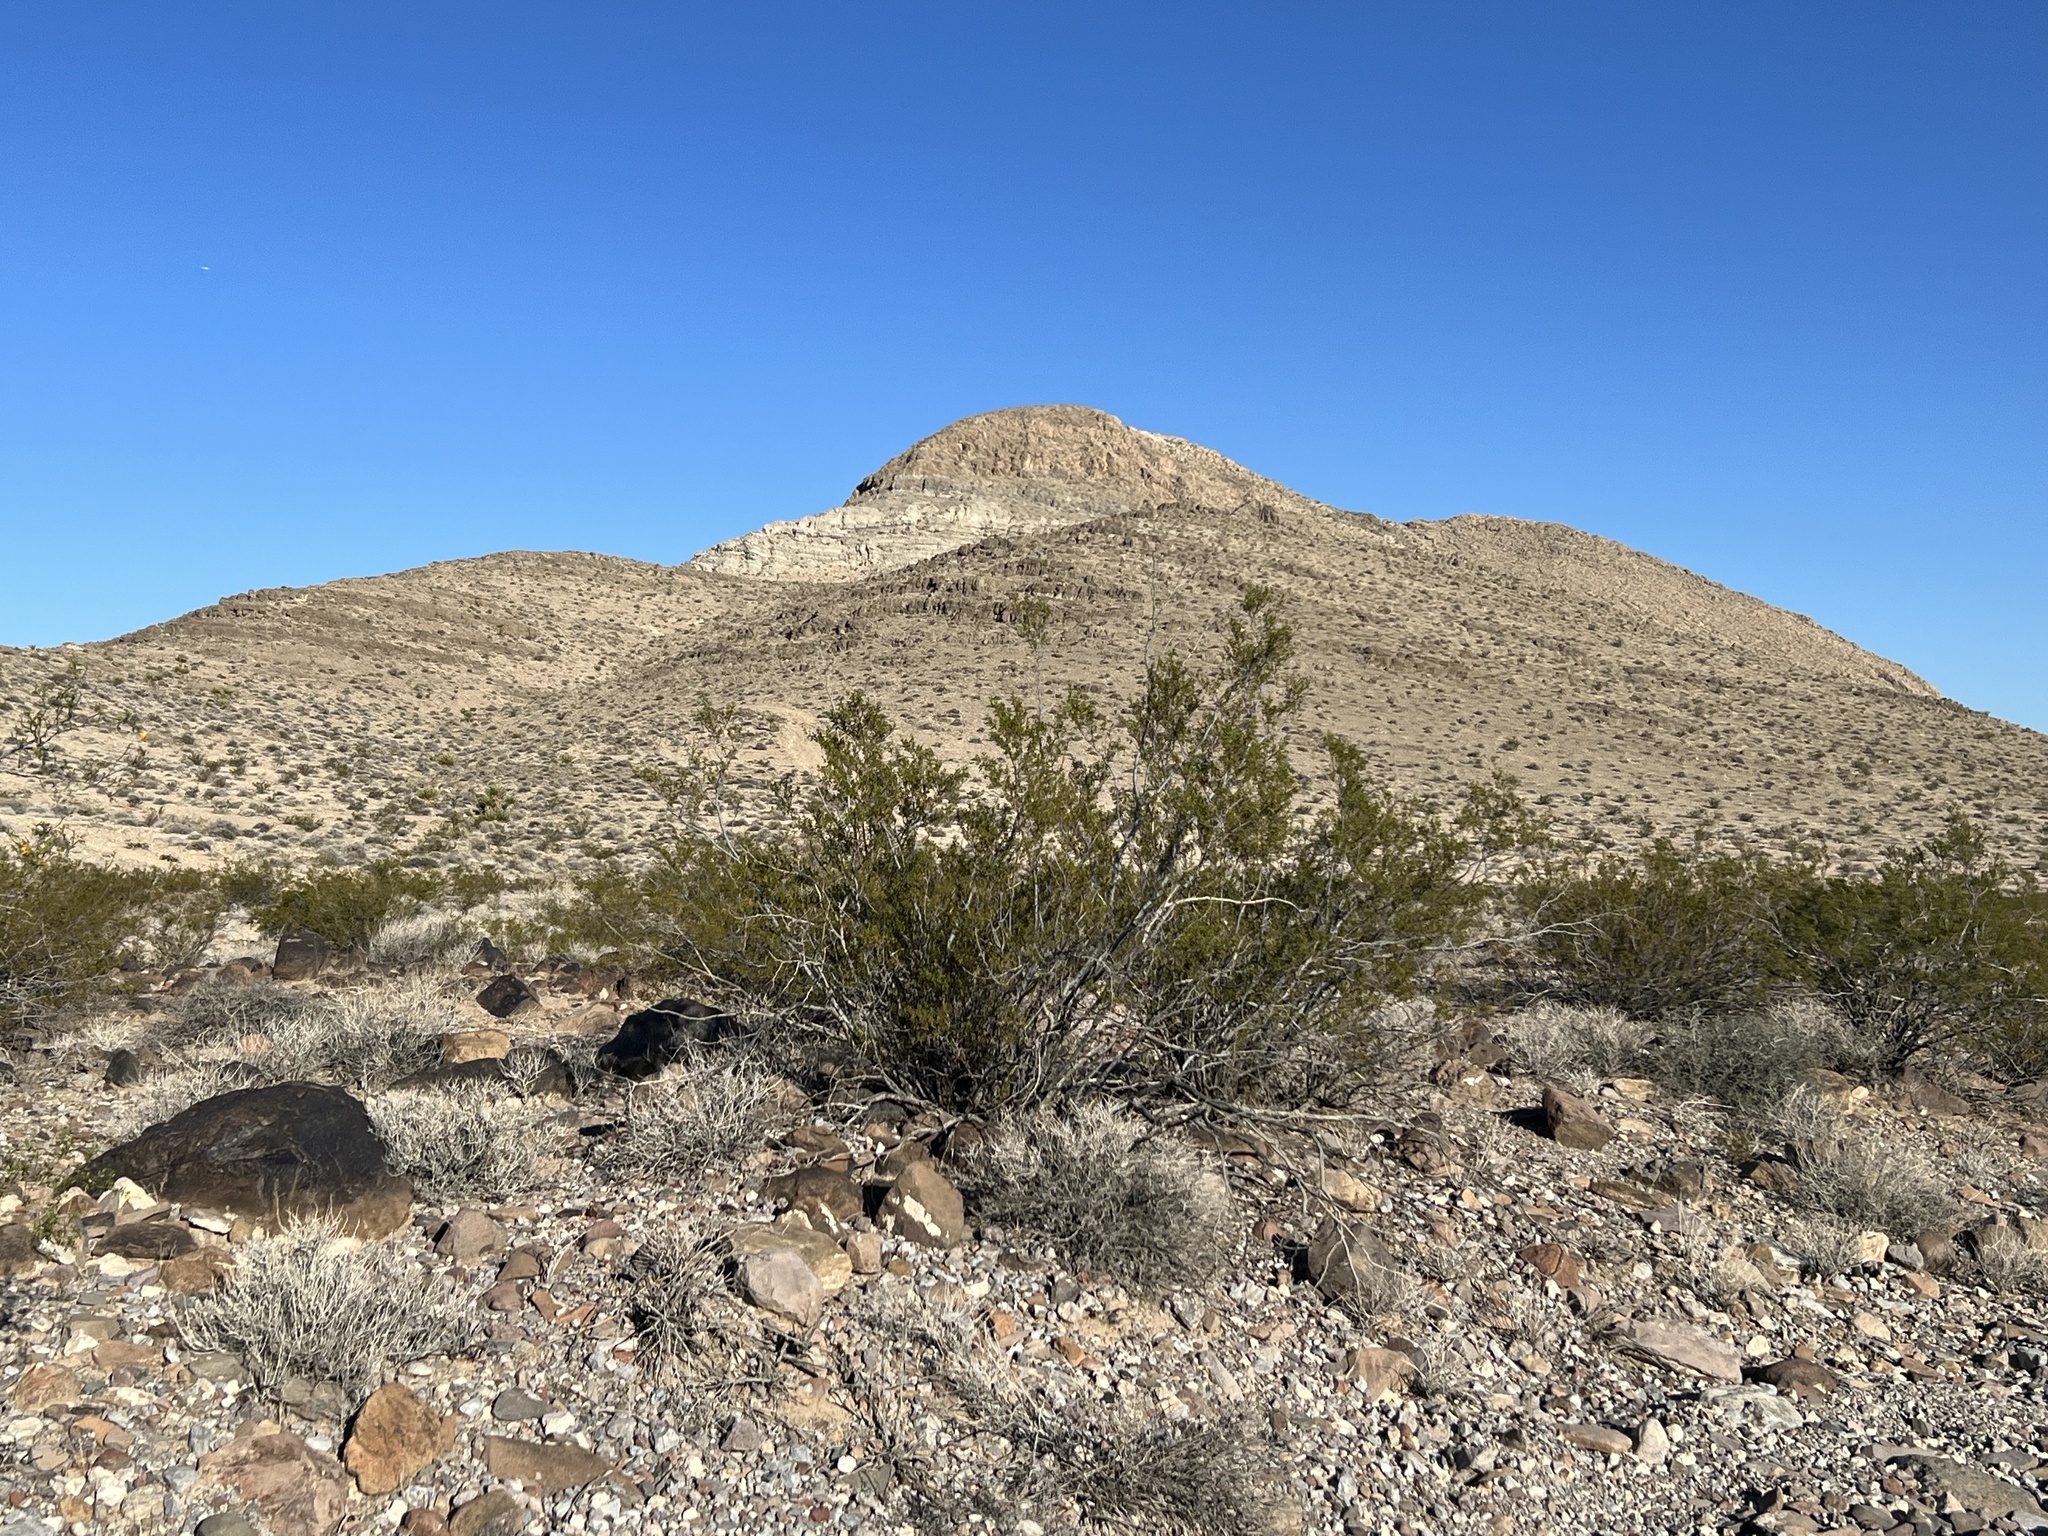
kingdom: Plantae
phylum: Tracheophyta
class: Magnoliopsida
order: Zygophyllales
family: Zygophyllaceae
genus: Larrea
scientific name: Larrea tridentata
